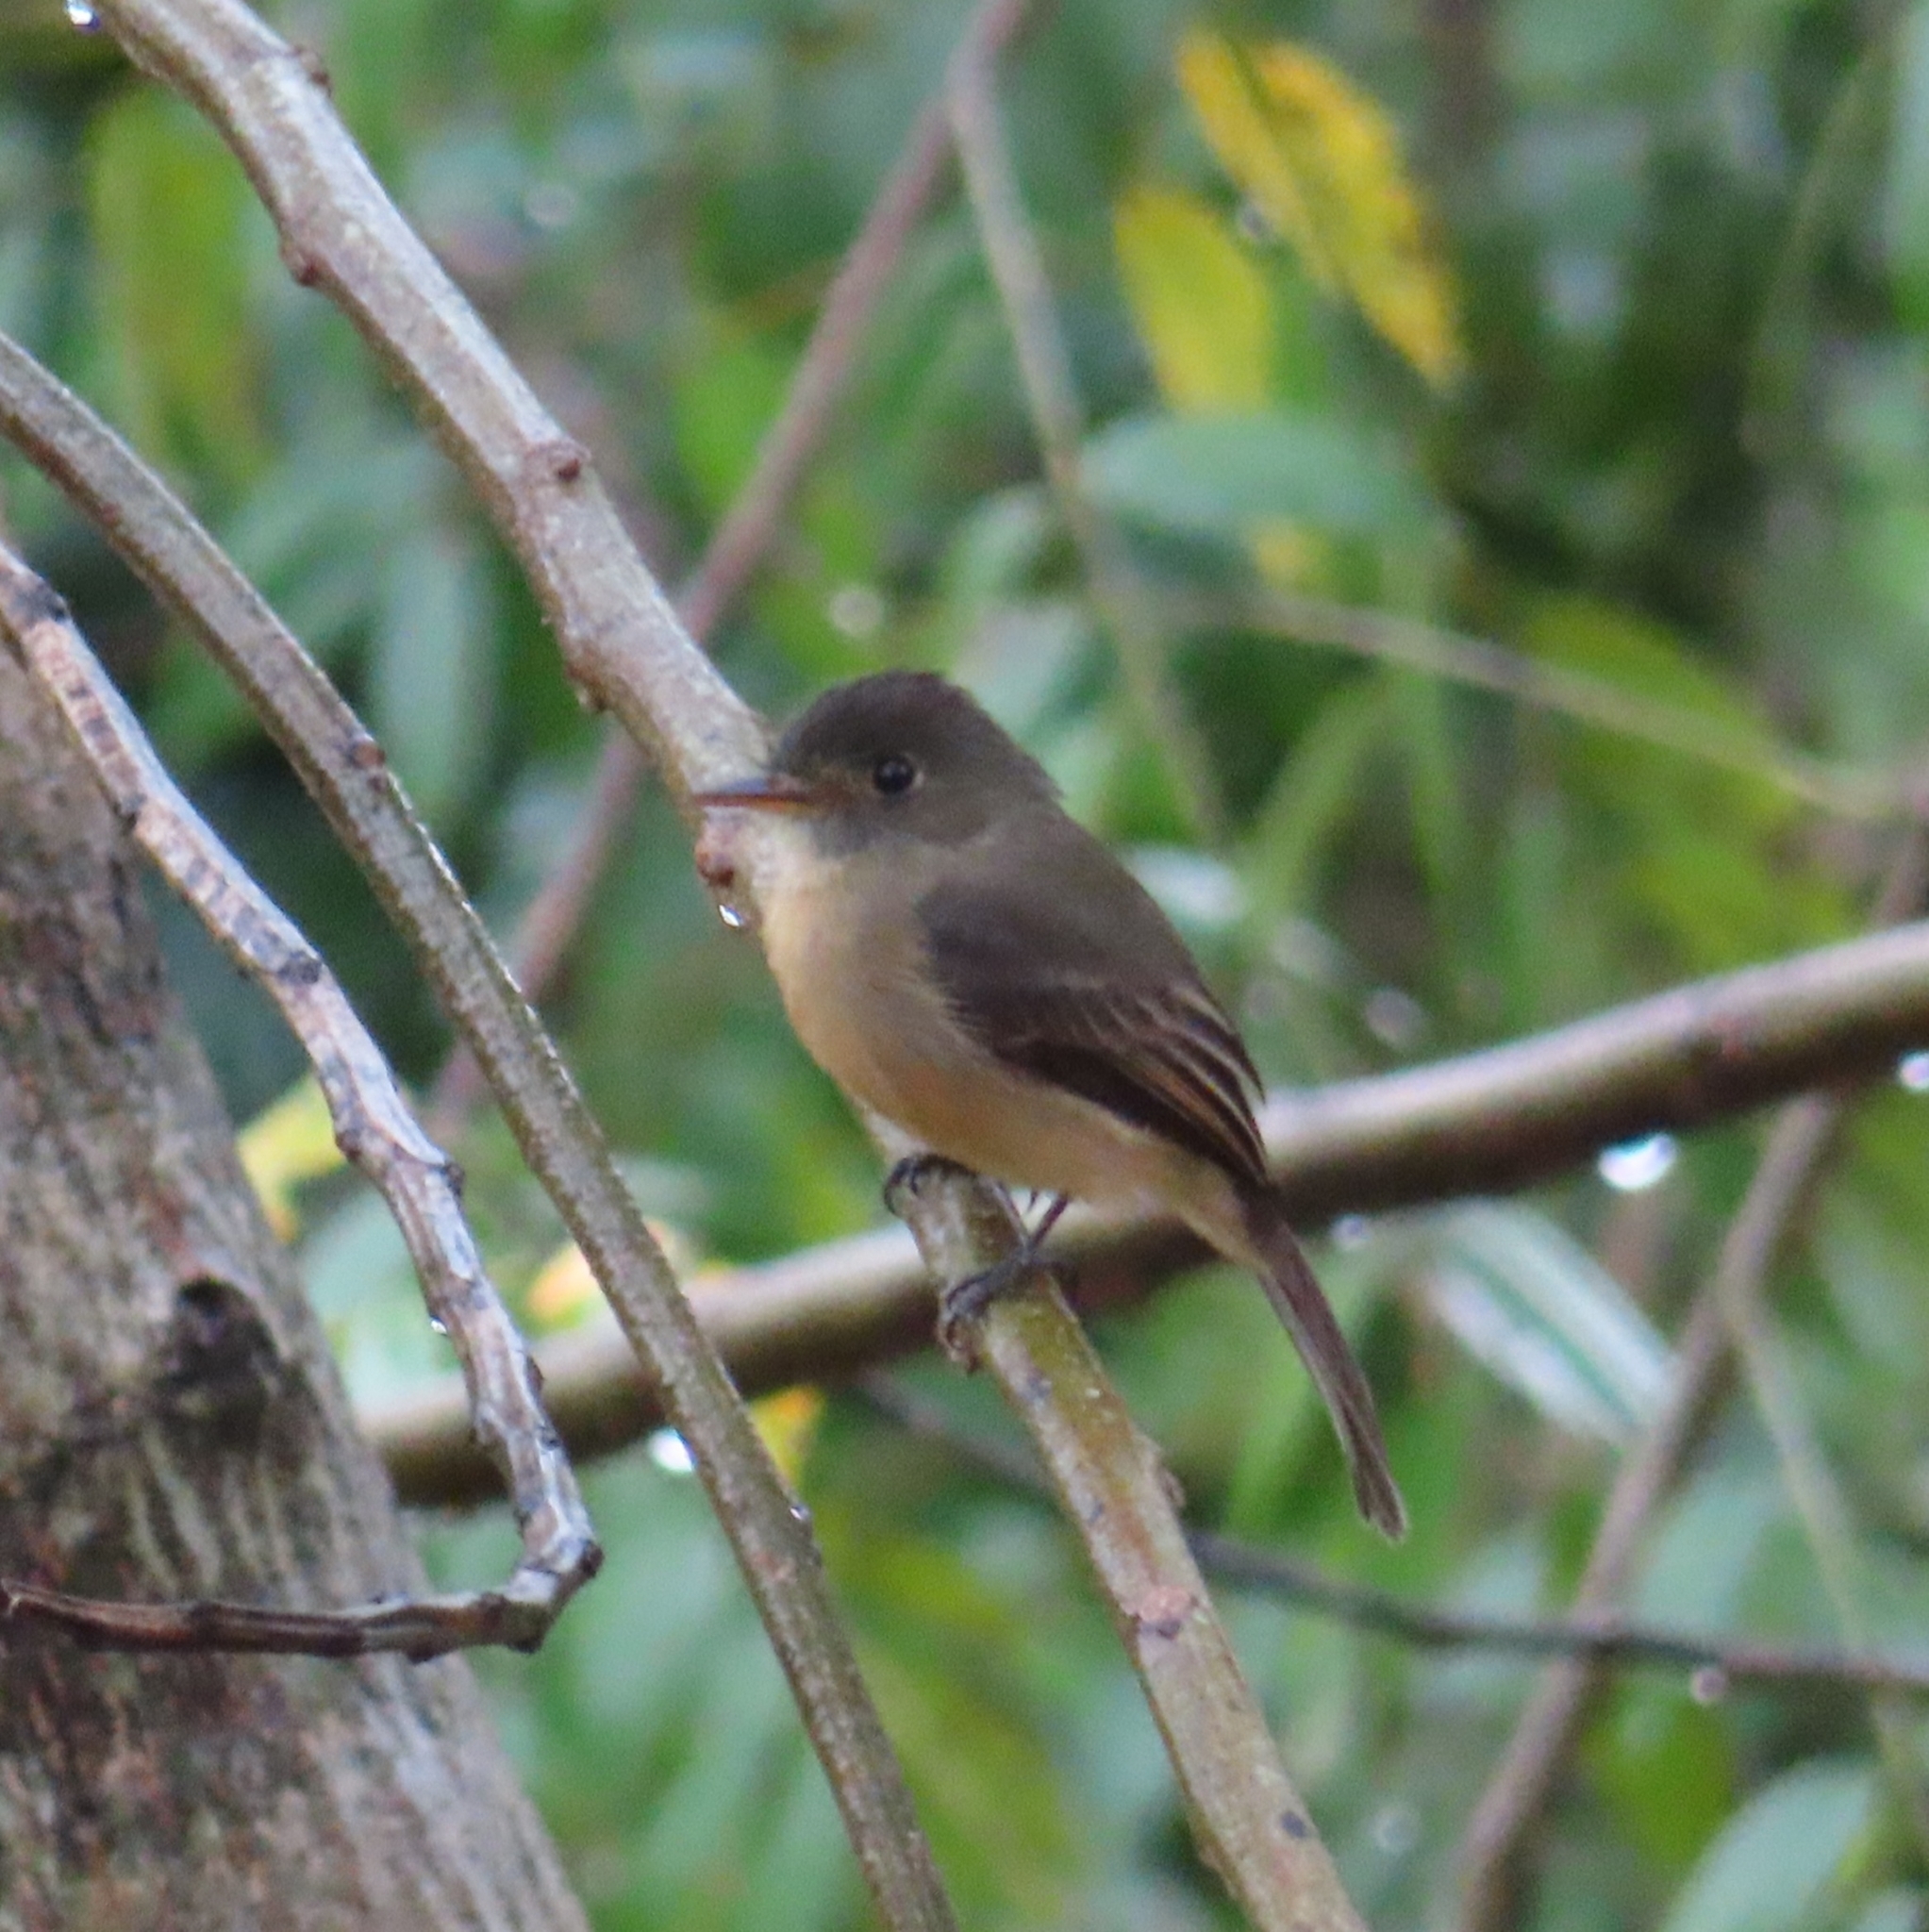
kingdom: Animalia
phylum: Chordata
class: Aves
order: Passeriformes
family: Tyrannidae
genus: Contopus
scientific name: Contopus latirostris
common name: Lesser antillean pewee
